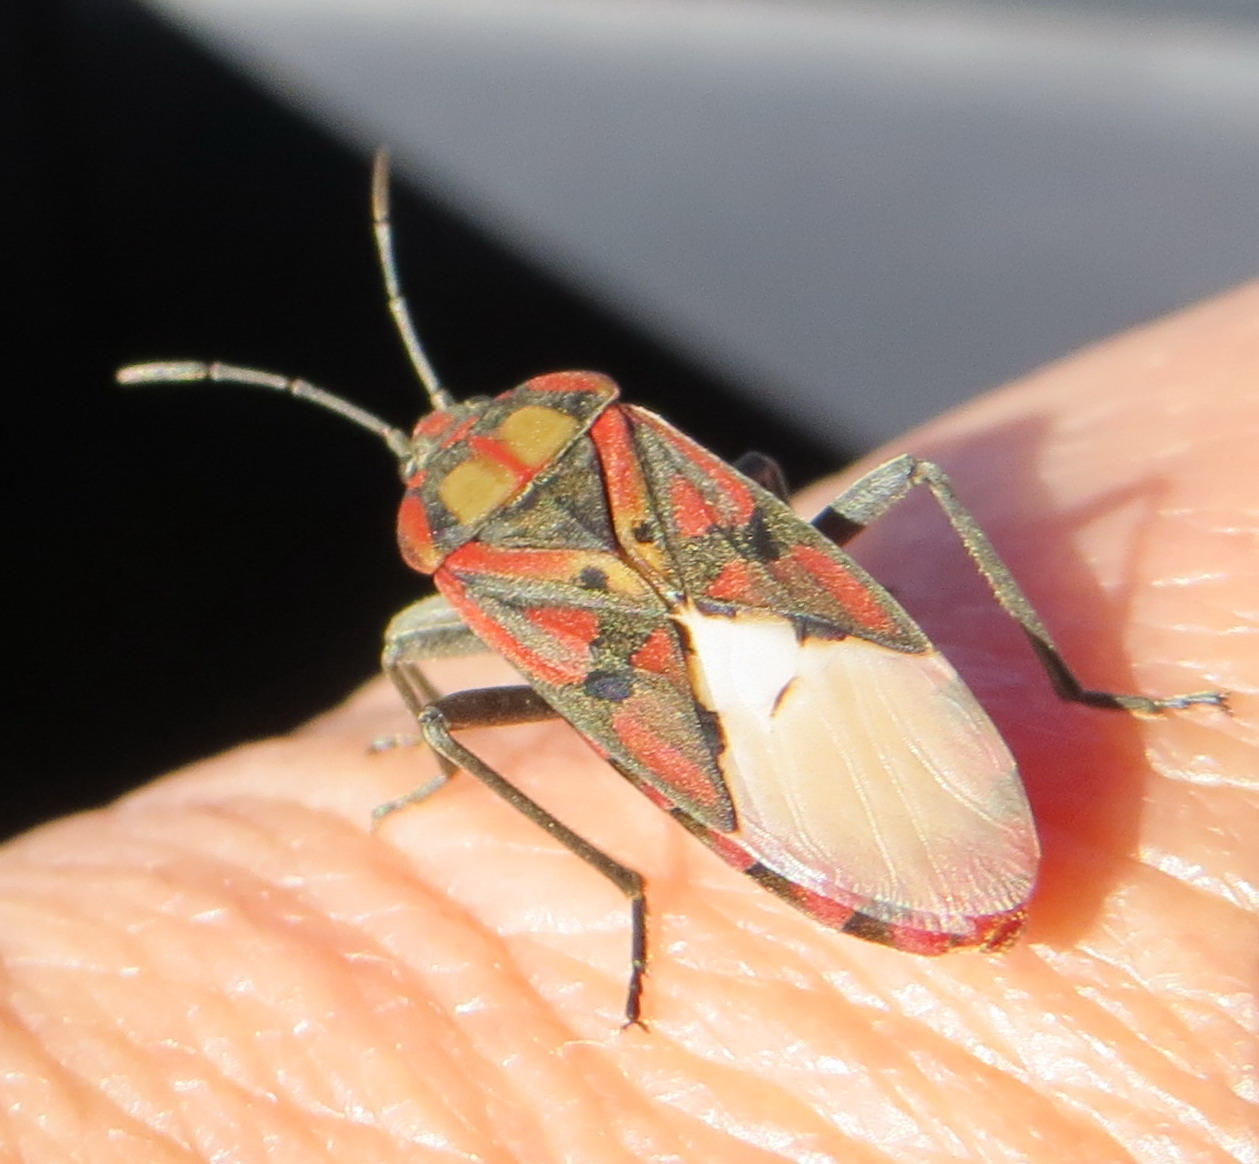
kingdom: Animalia
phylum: Arthropoda
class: Insecta
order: Hemiptera
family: Lygaeidae
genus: Spilostethus
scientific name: Spilostethus pandurus
